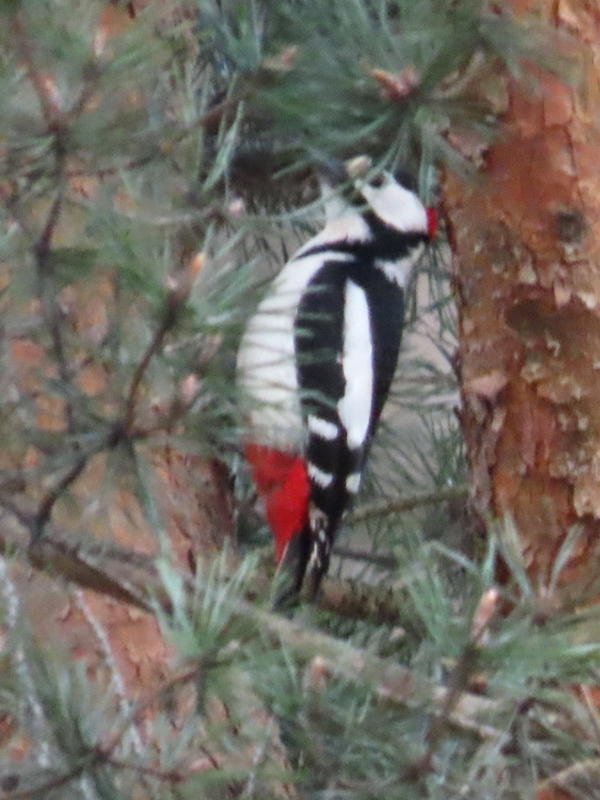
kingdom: Animalia
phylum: Chordata
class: Aves
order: Piciformes
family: Picidae
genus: Dendrocopos
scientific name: Dendrocopos major
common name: Great spotted woodpecker
